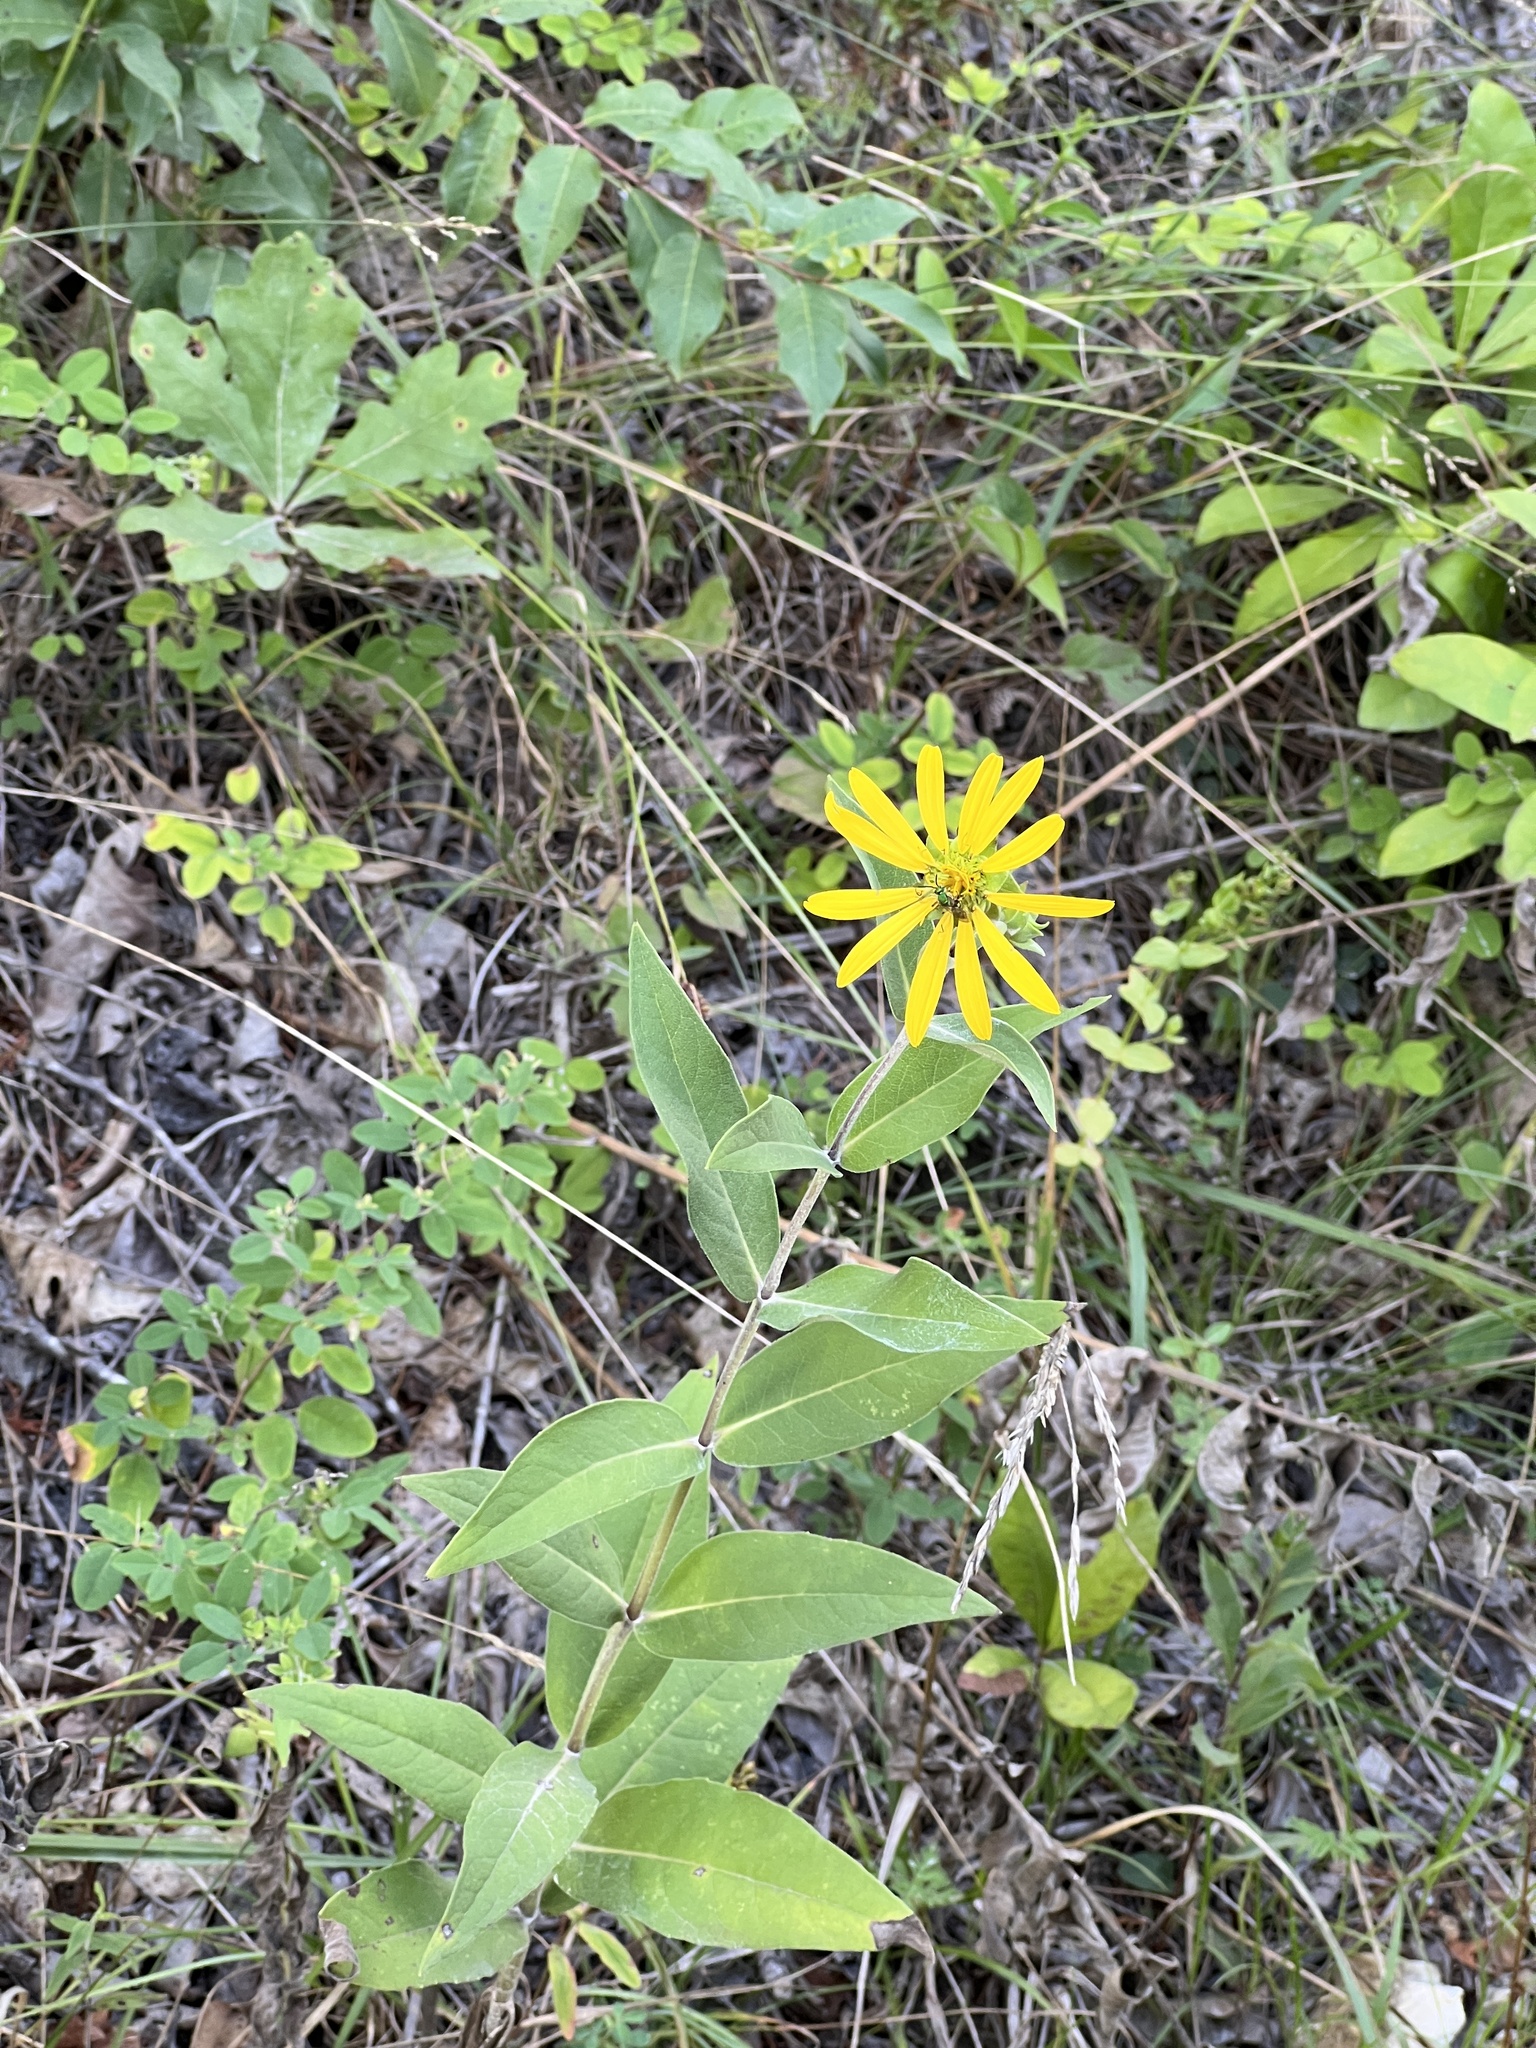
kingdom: Plantae
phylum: Tracheophyta
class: Magnoliopsida
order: Asterales
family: Asteraceae
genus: Silphium
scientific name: Silphium integrifolium
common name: Whole-leaf rosinweed
